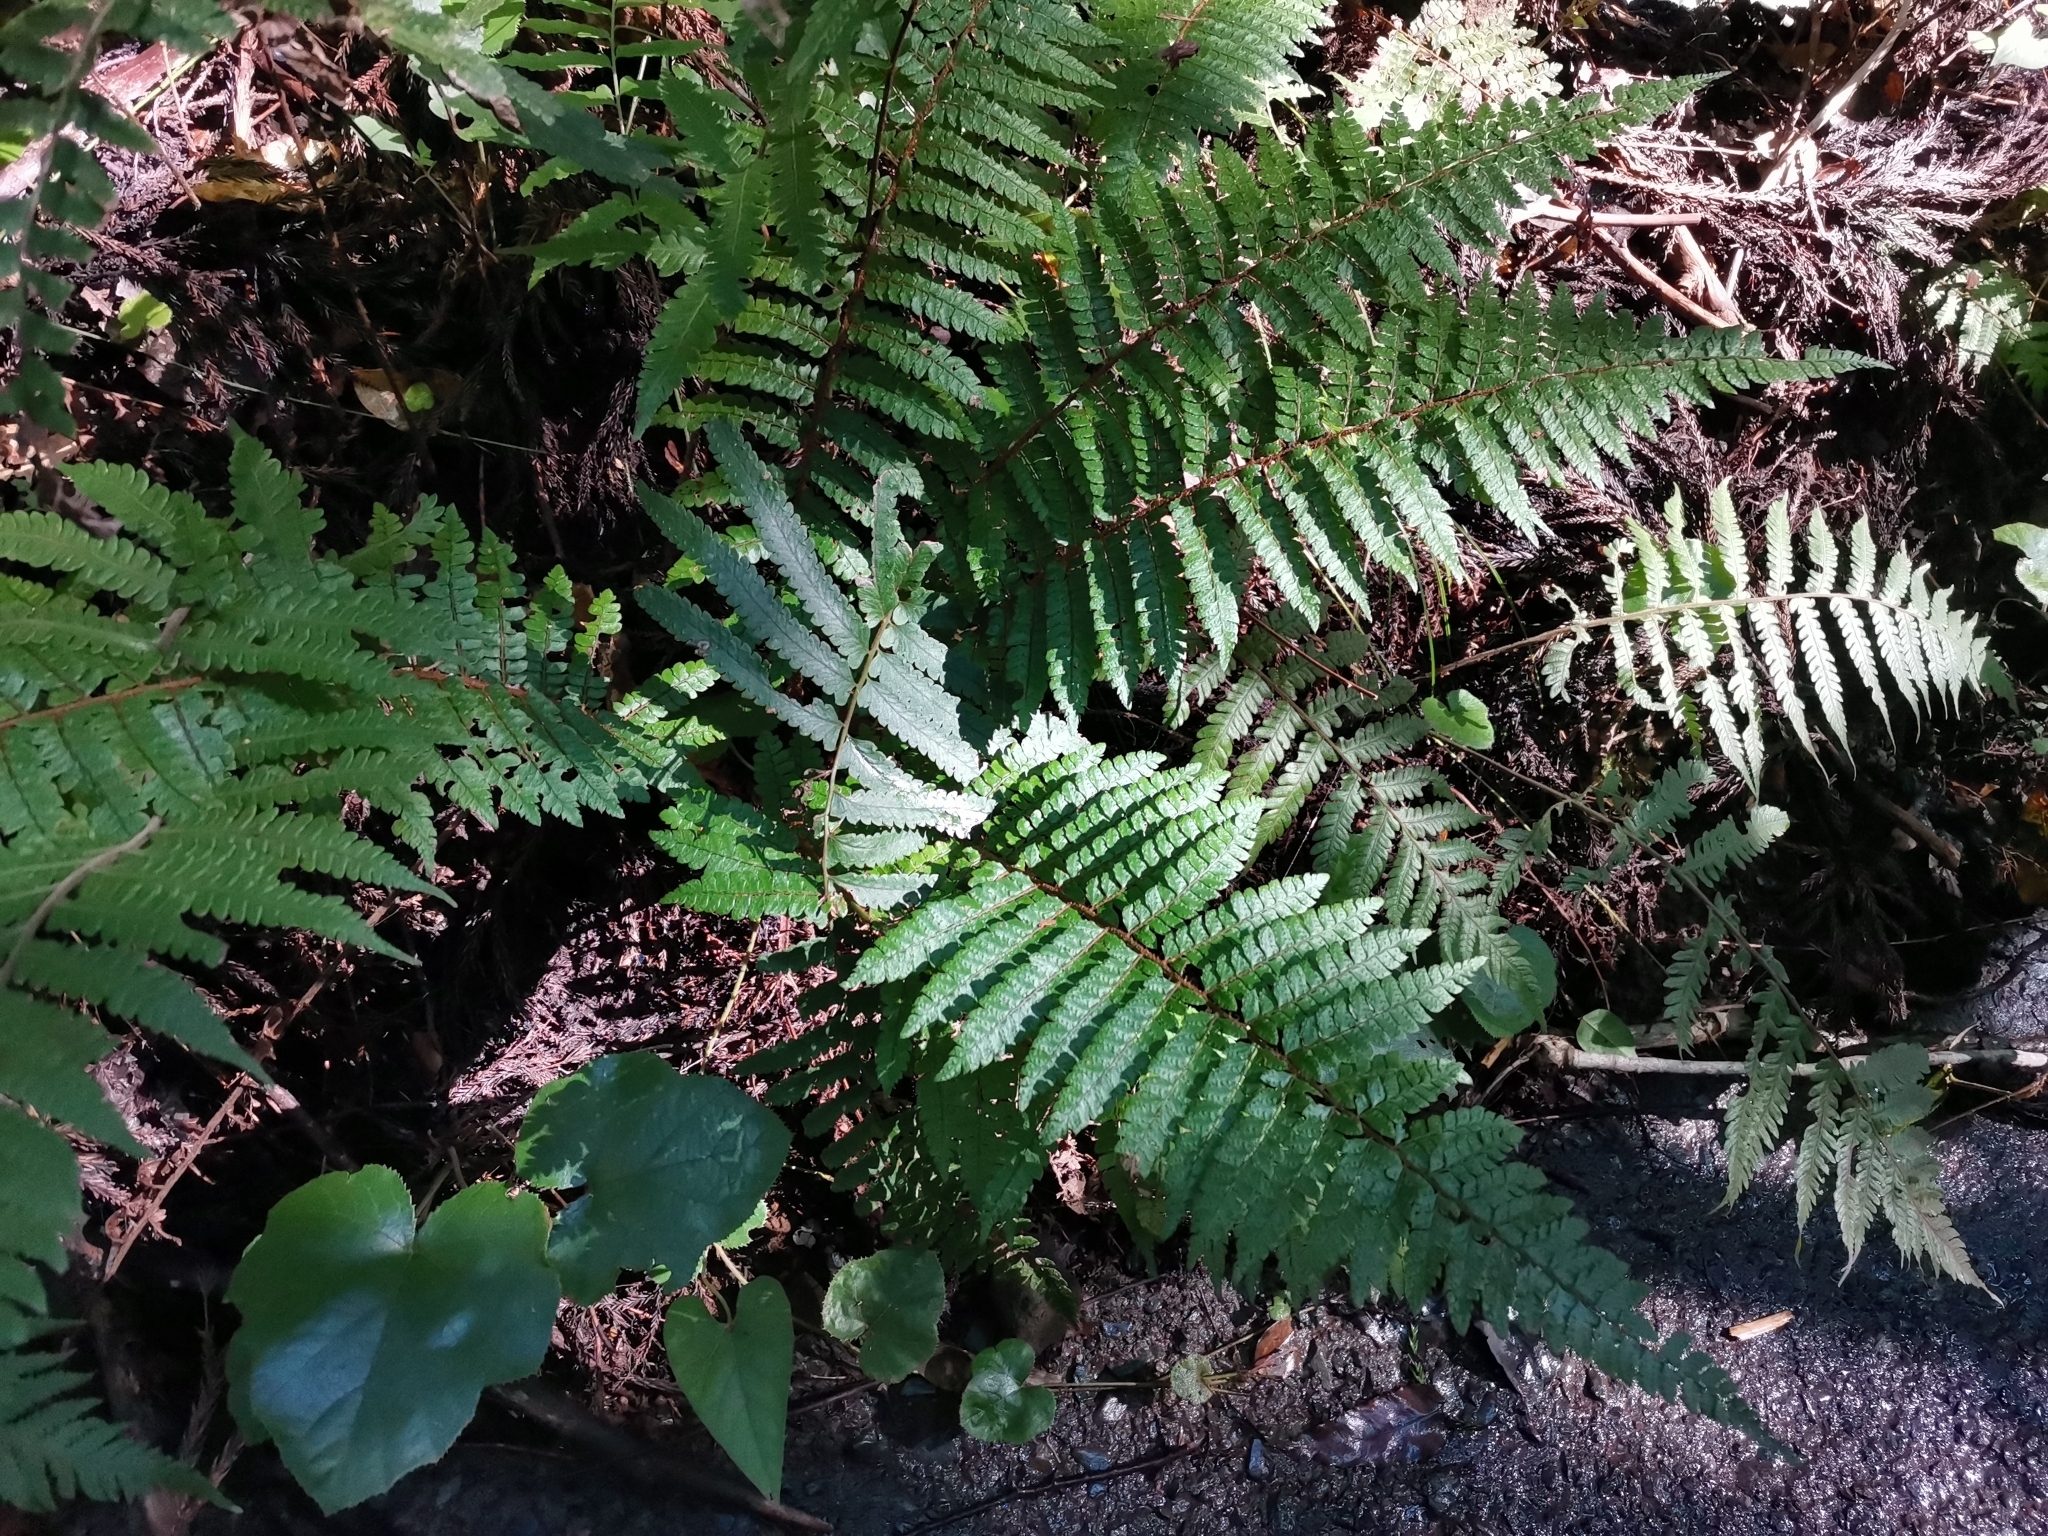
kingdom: Plantae
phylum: Tracheophyta
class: Polypodiopsida
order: Polypodiales
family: Dryopteridaceae
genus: Polystichum
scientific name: Polystichum luctuosum
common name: Korean rockfern
